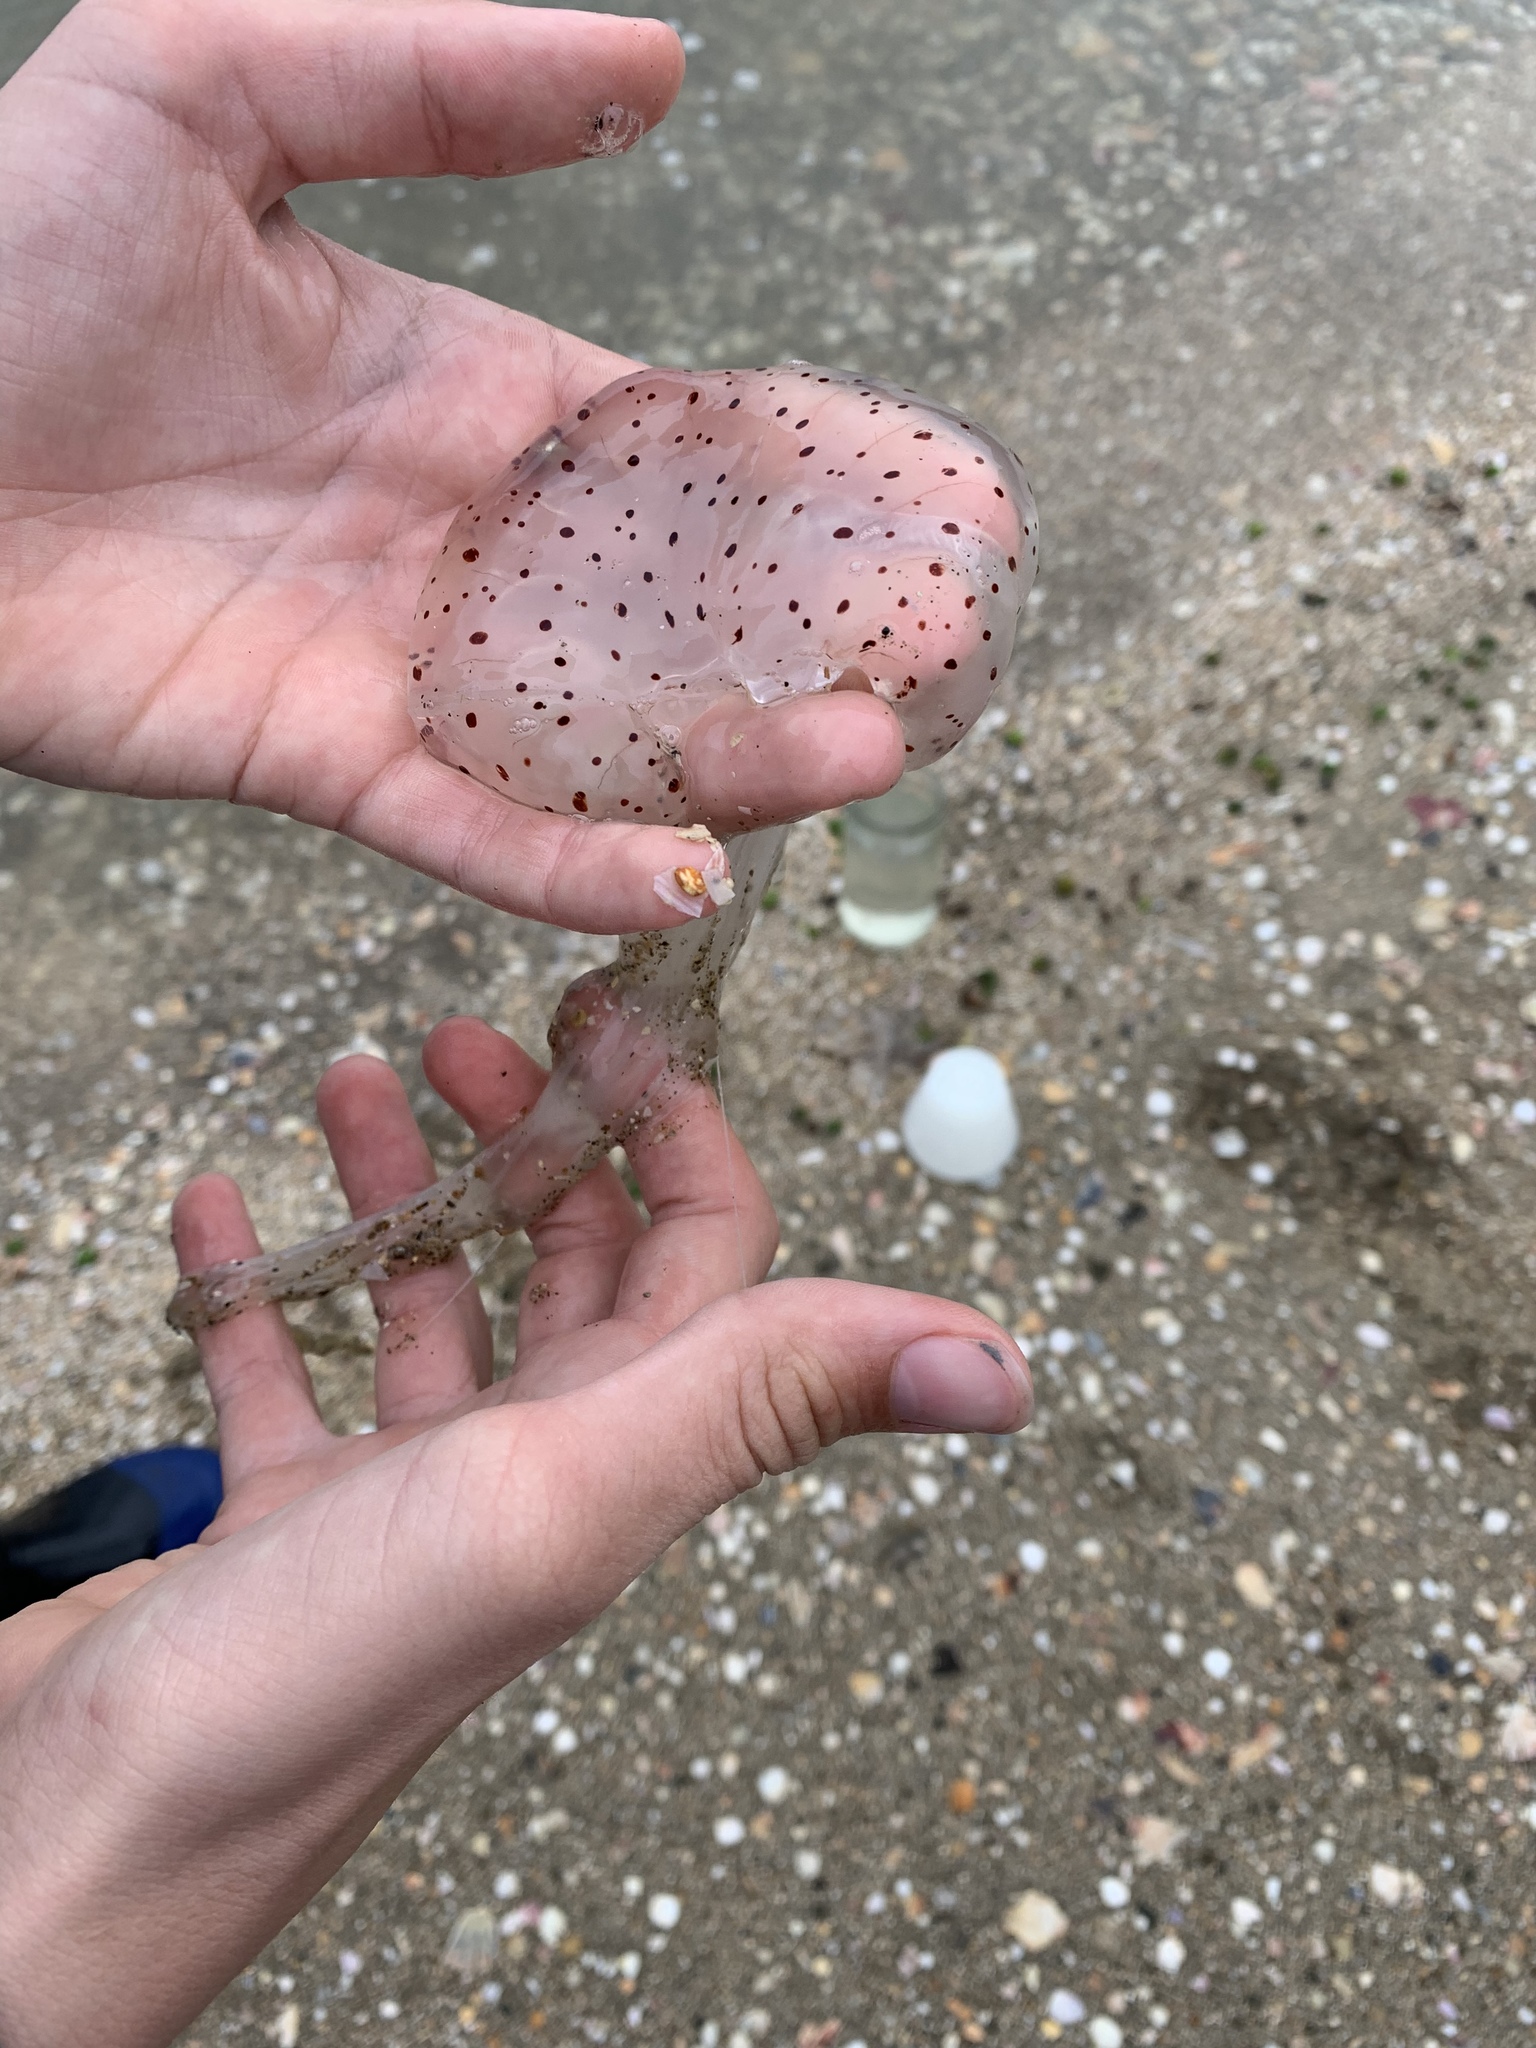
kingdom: Animalia
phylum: Cnidaria
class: Scyphozoa
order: Semaeostomeae
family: Cyaneidae
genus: Desmonema
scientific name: Desmonema gaudichaudi
